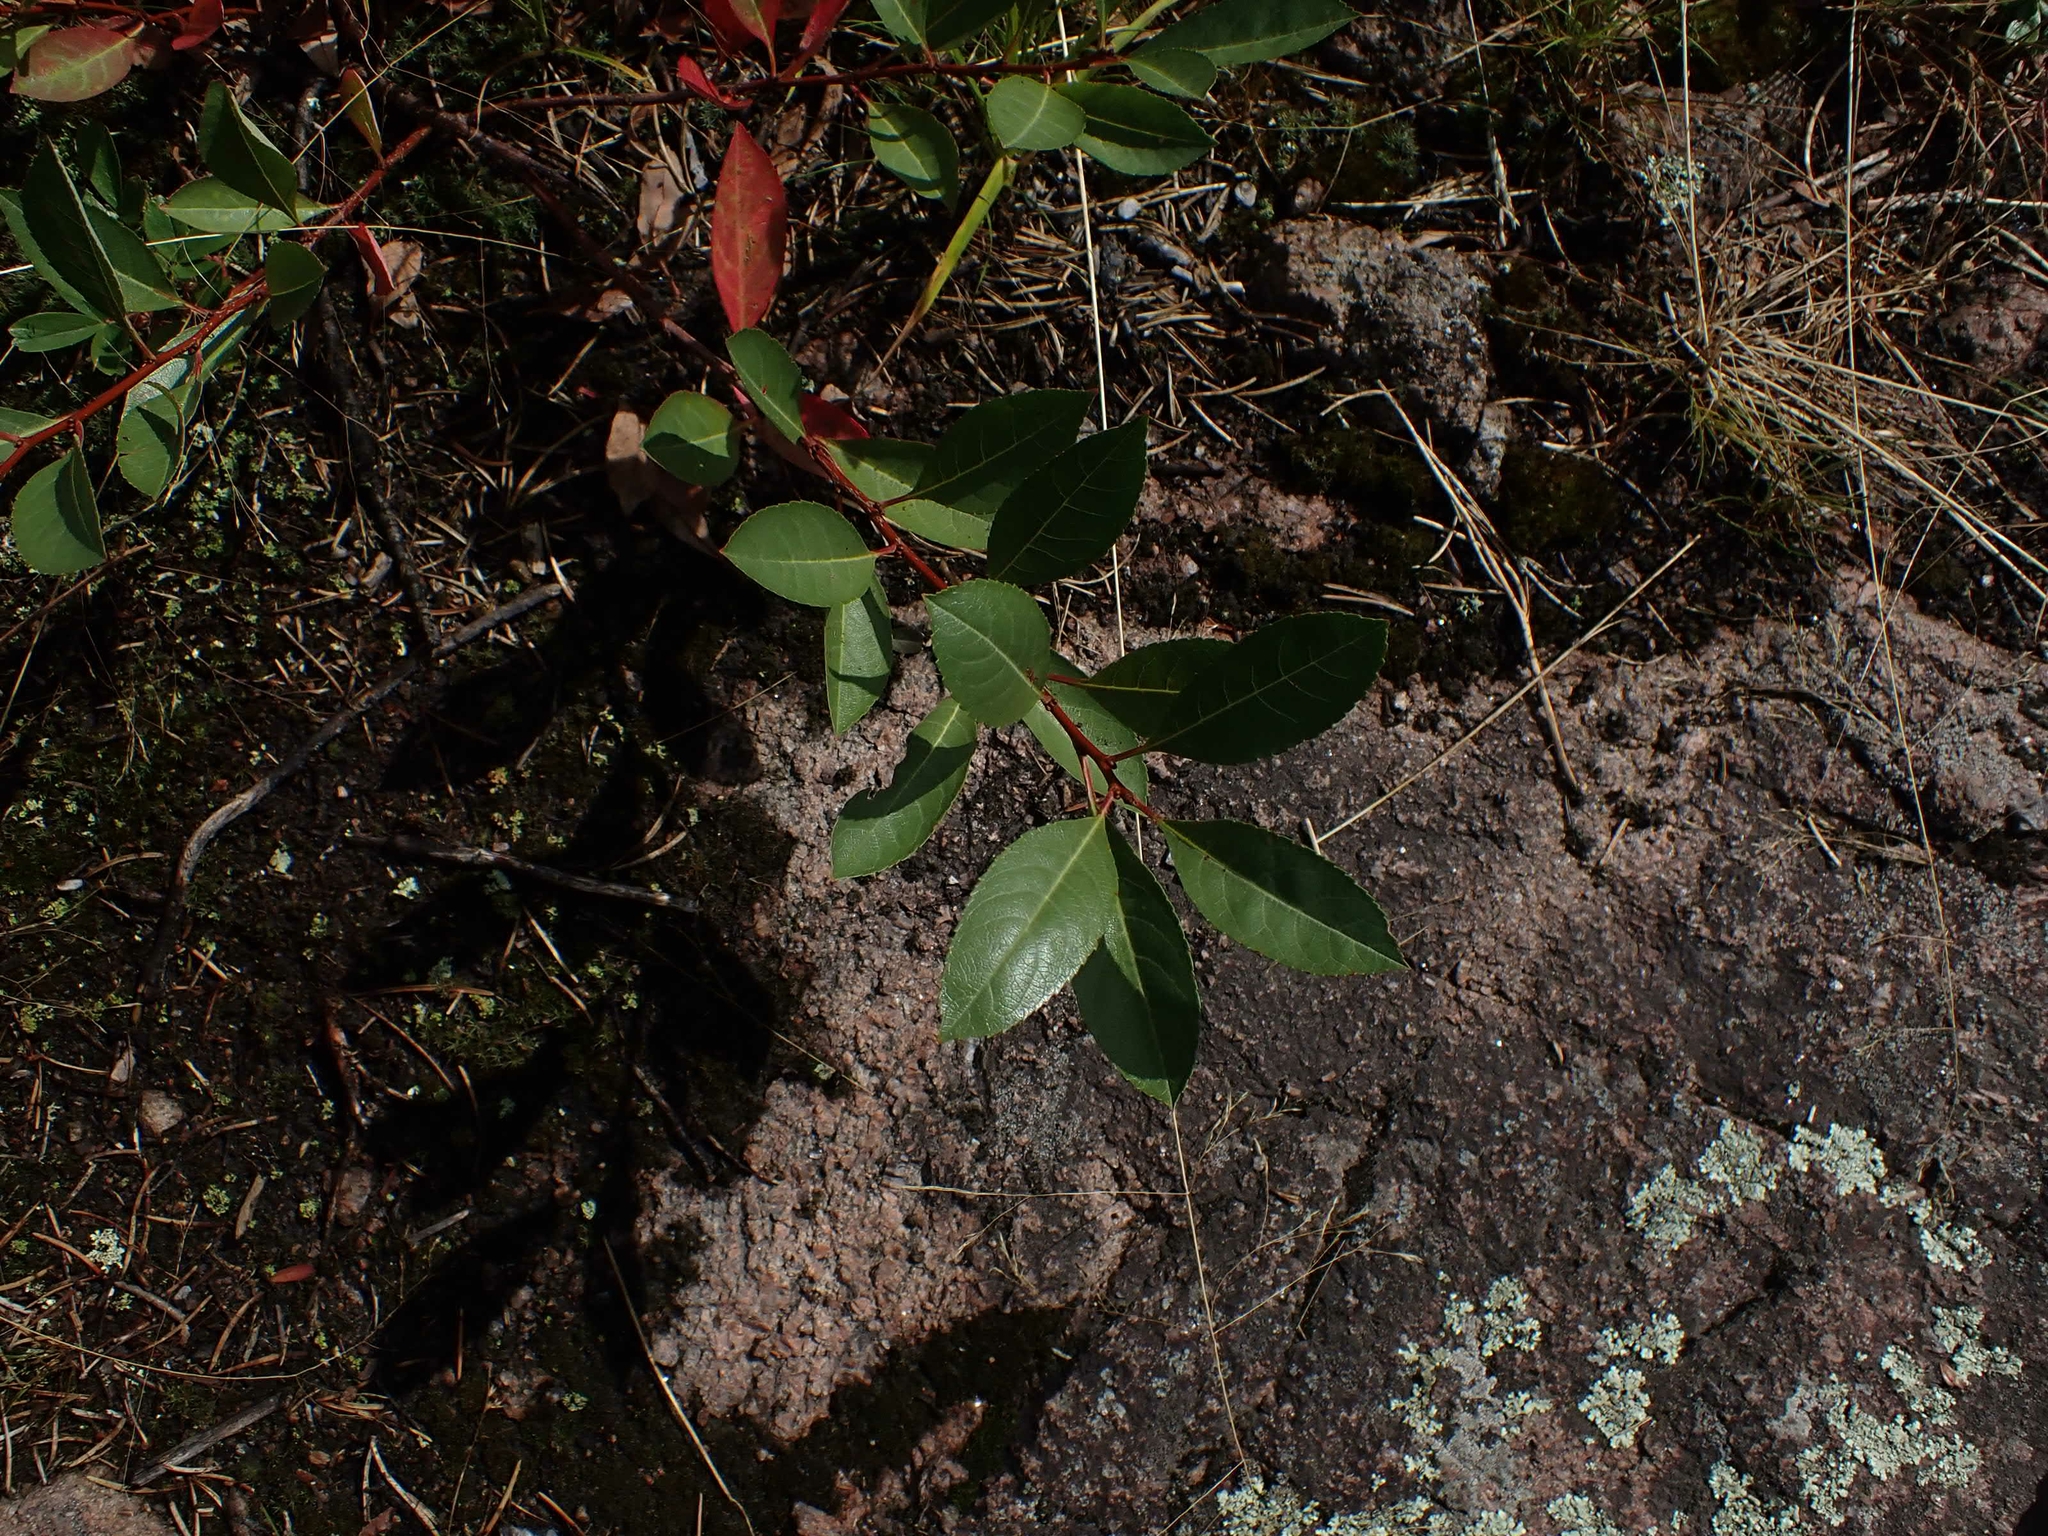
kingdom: Plantae
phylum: Tracheophyta
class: Magnoliopsida
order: Rosales
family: Rosaceae
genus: Prunus
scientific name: Prunus pumila
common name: Dwarf cherry
